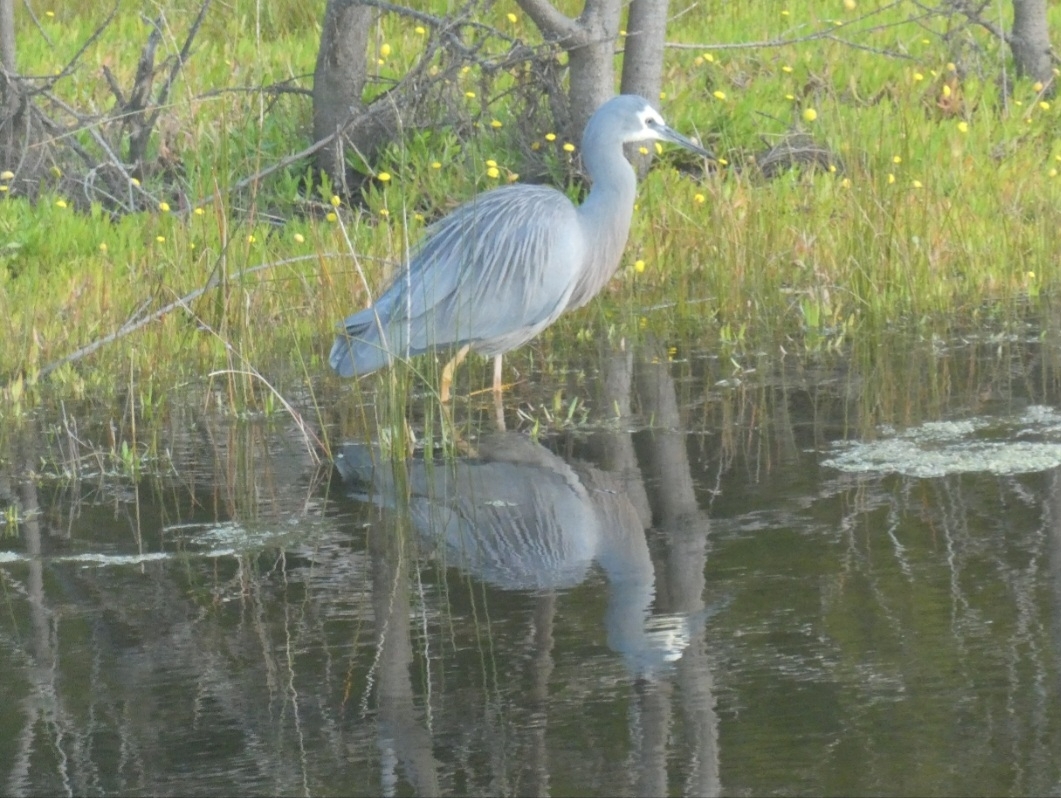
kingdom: Animalia
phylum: Chordata
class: Aves
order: Pelecaniformes
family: Ardeidae
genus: Egretta
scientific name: Egretta novaehollandiae
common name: White-faced heron
